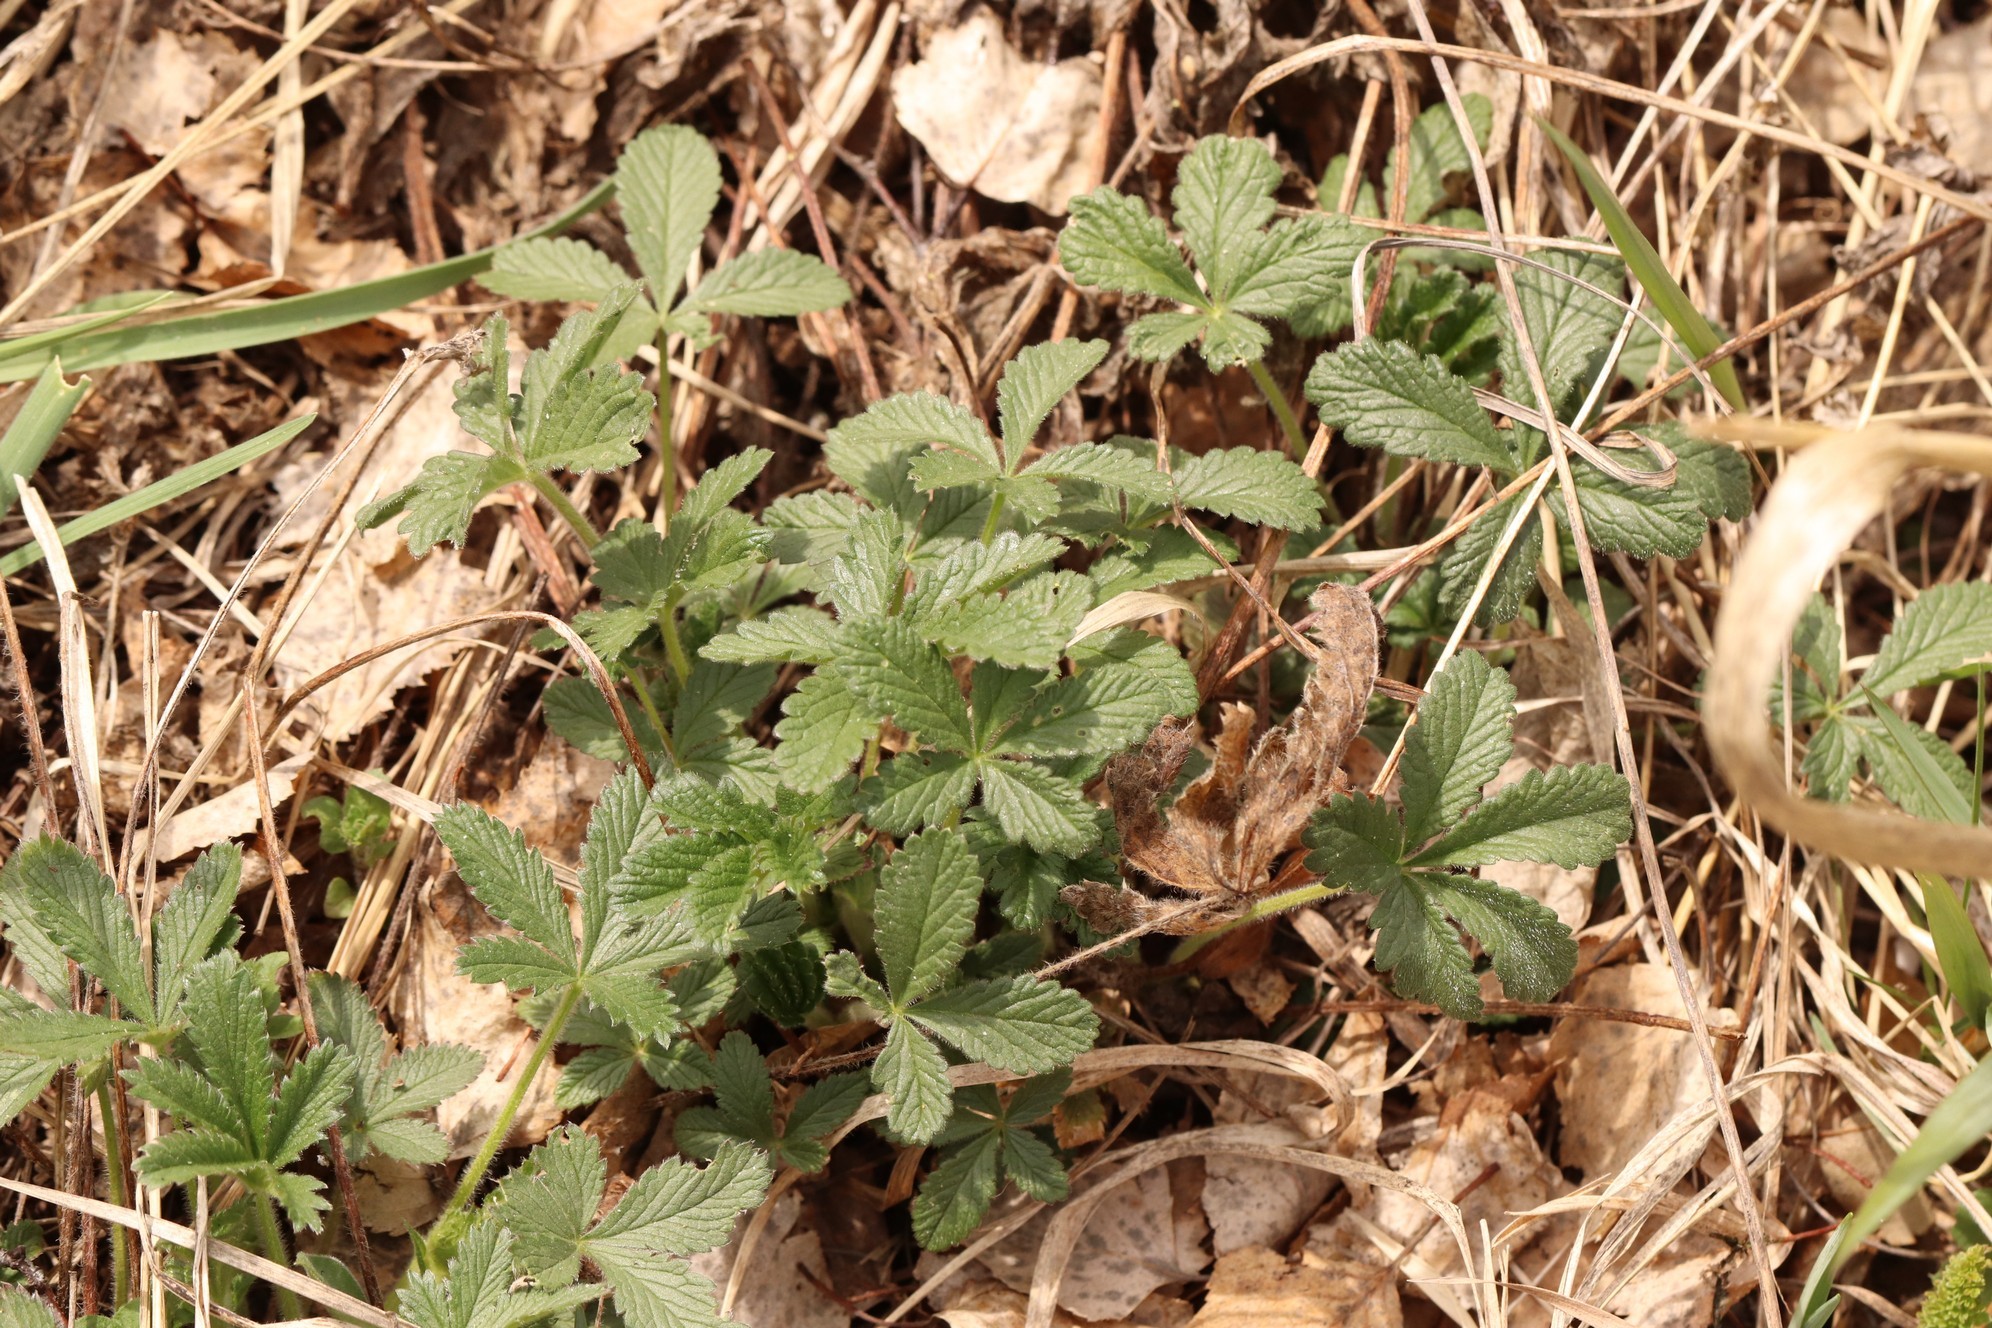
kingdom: Plantae
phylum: Tracheophyta
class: Magnoliopsida
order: Rosales
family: Rosaceae
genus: Potentilla
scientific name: Potentilla chrysantha
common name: Thuringian cinquefoil
